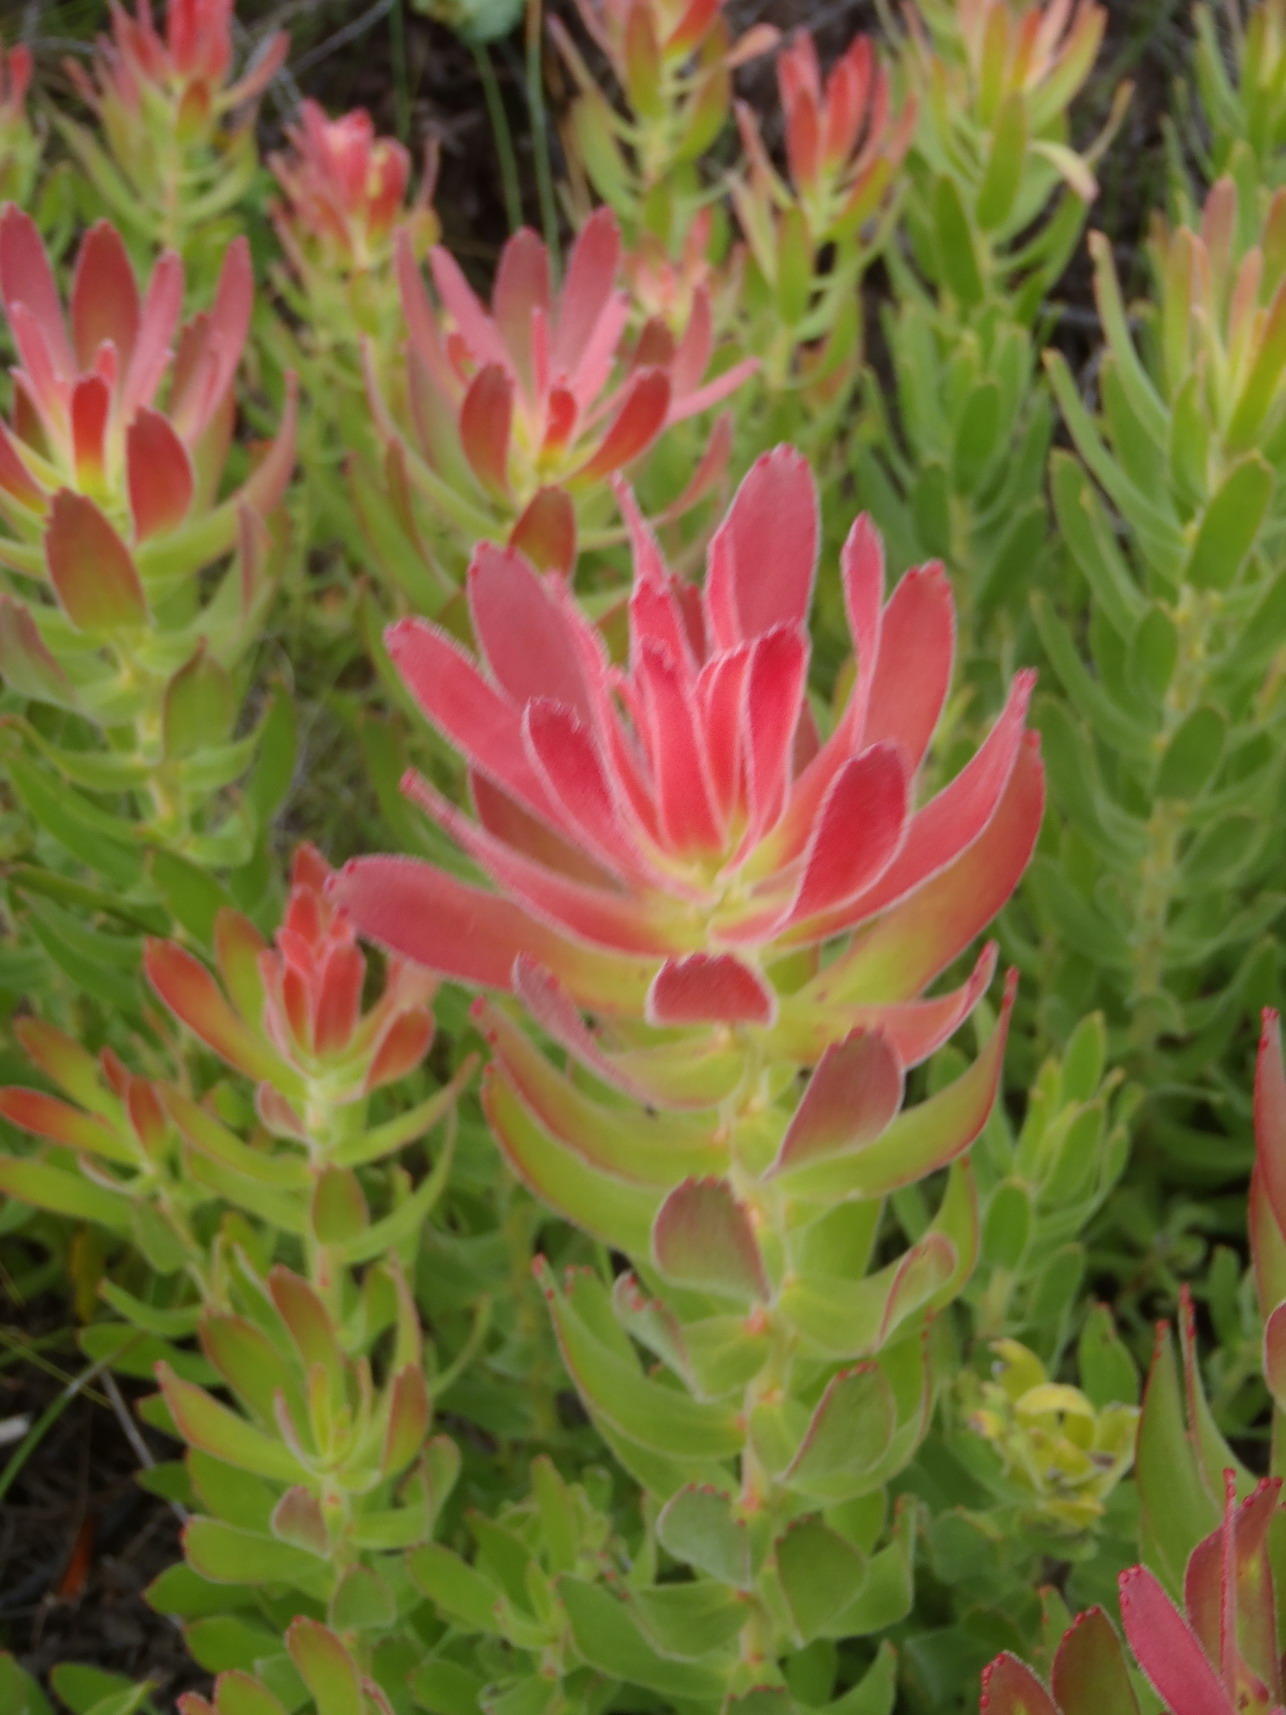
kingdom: Plantae
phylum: Tracheophyta
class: Magnoliopsida
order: Proteales
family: Proteaceae
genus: Mimetes
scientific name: Mimetes cucullatus
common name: Common pagoda
